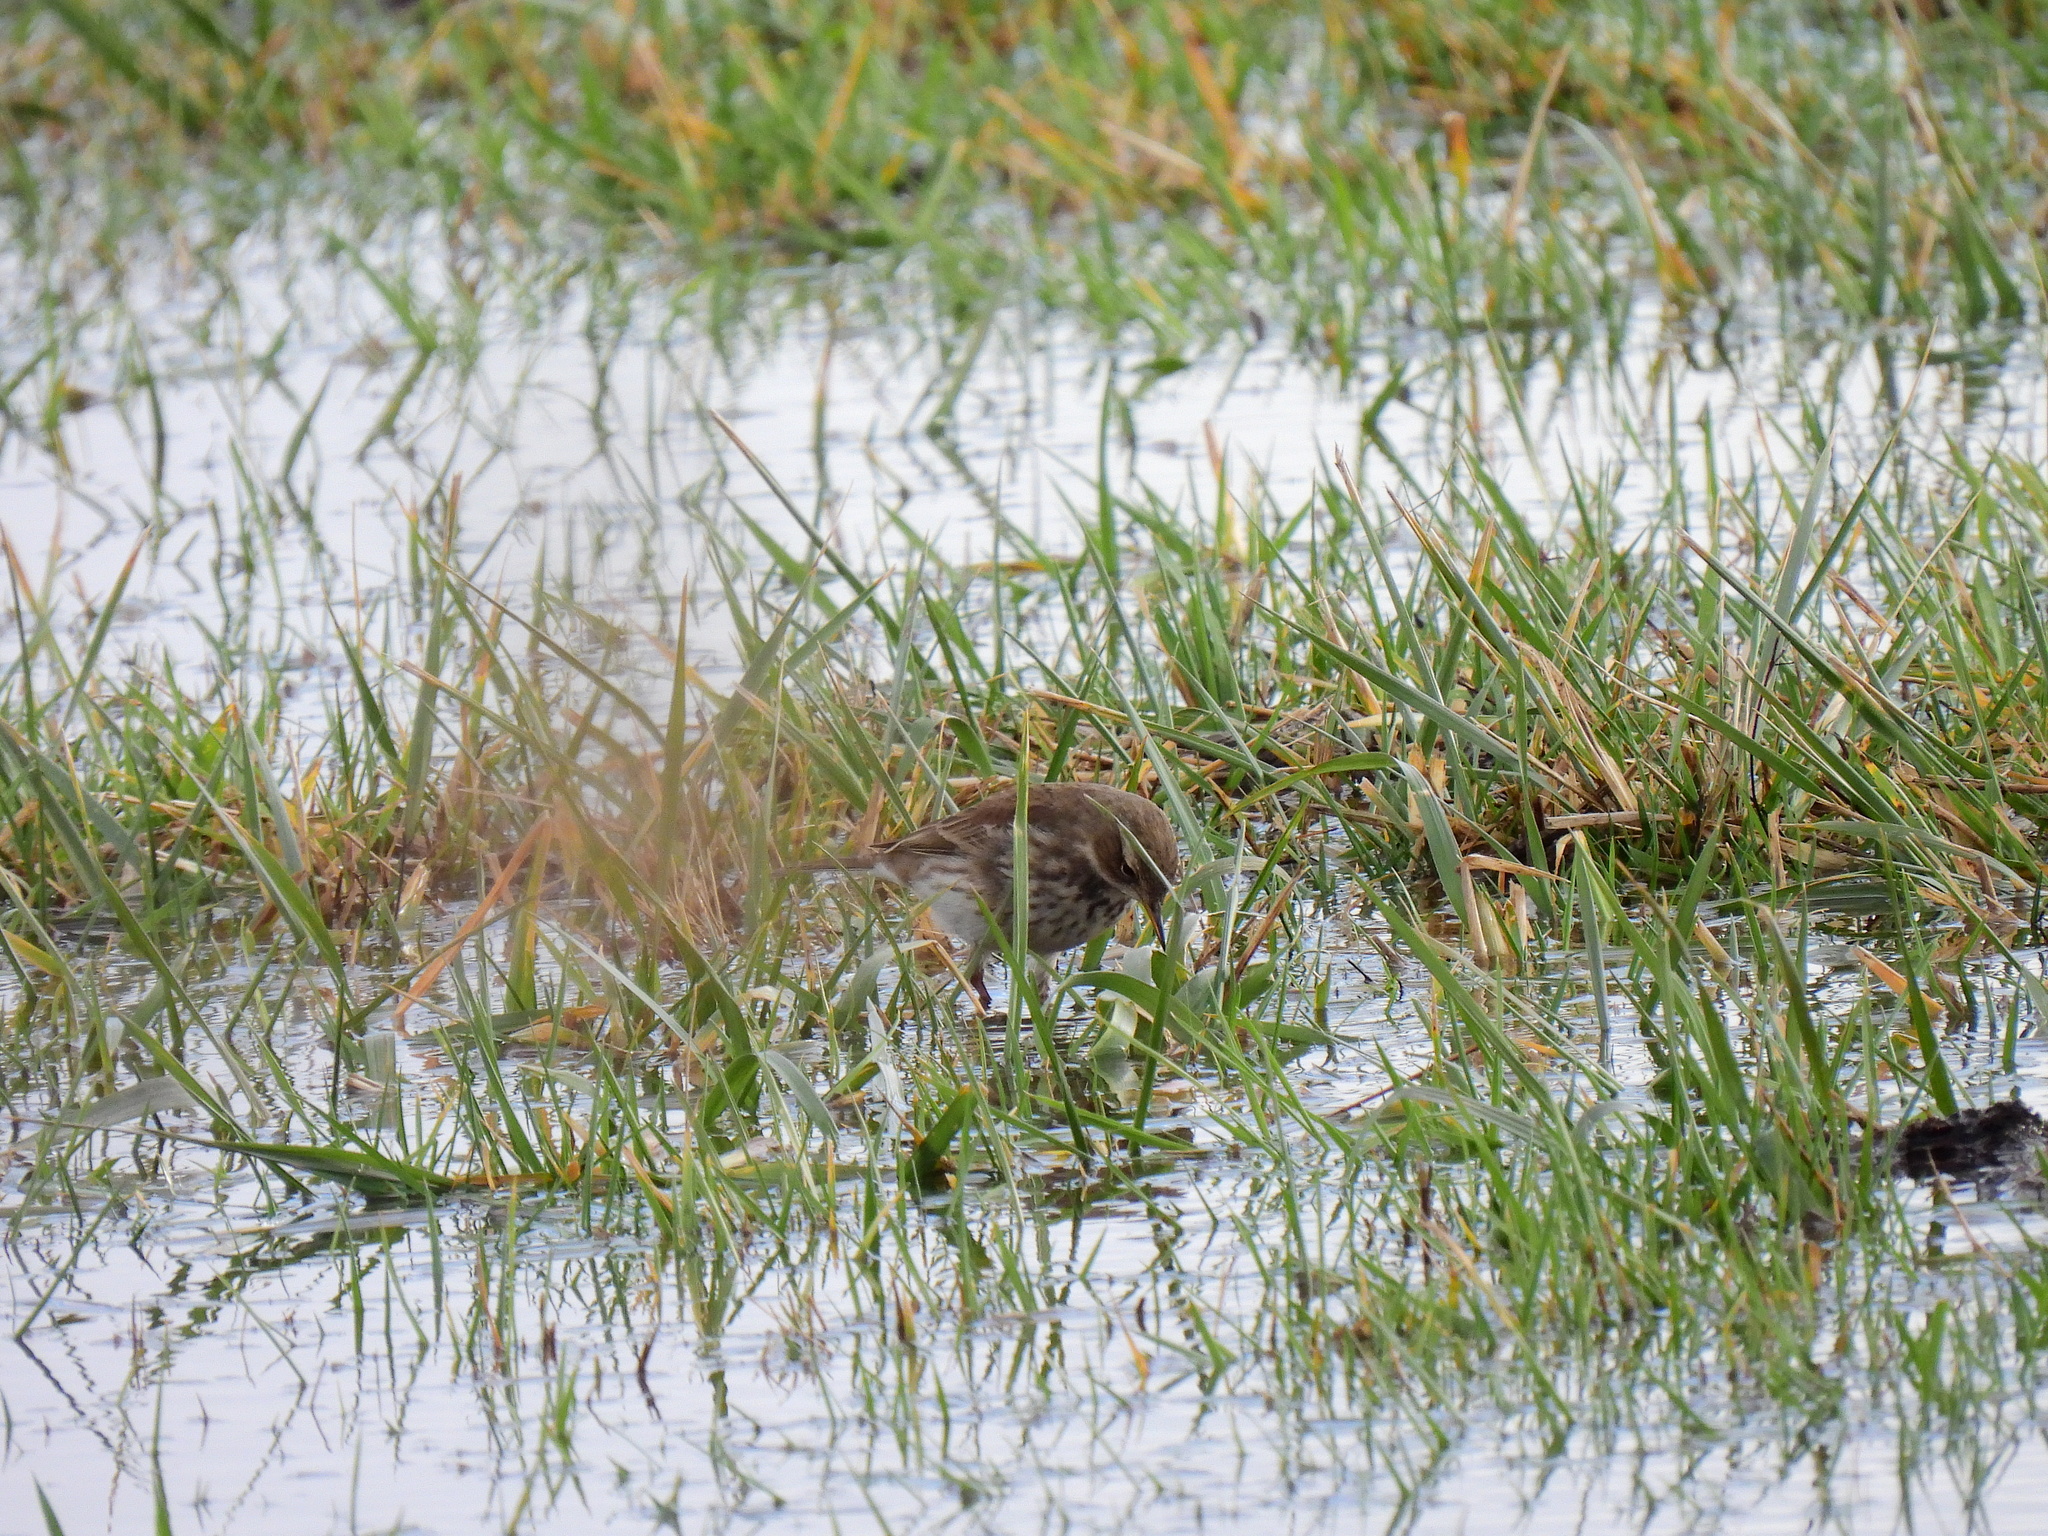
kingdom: Animalia
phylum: Chordata
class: Aves
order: Passeriformes
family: Motacillidae
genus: Anthus
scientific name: Anthus spinoletta
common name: Water pipit
